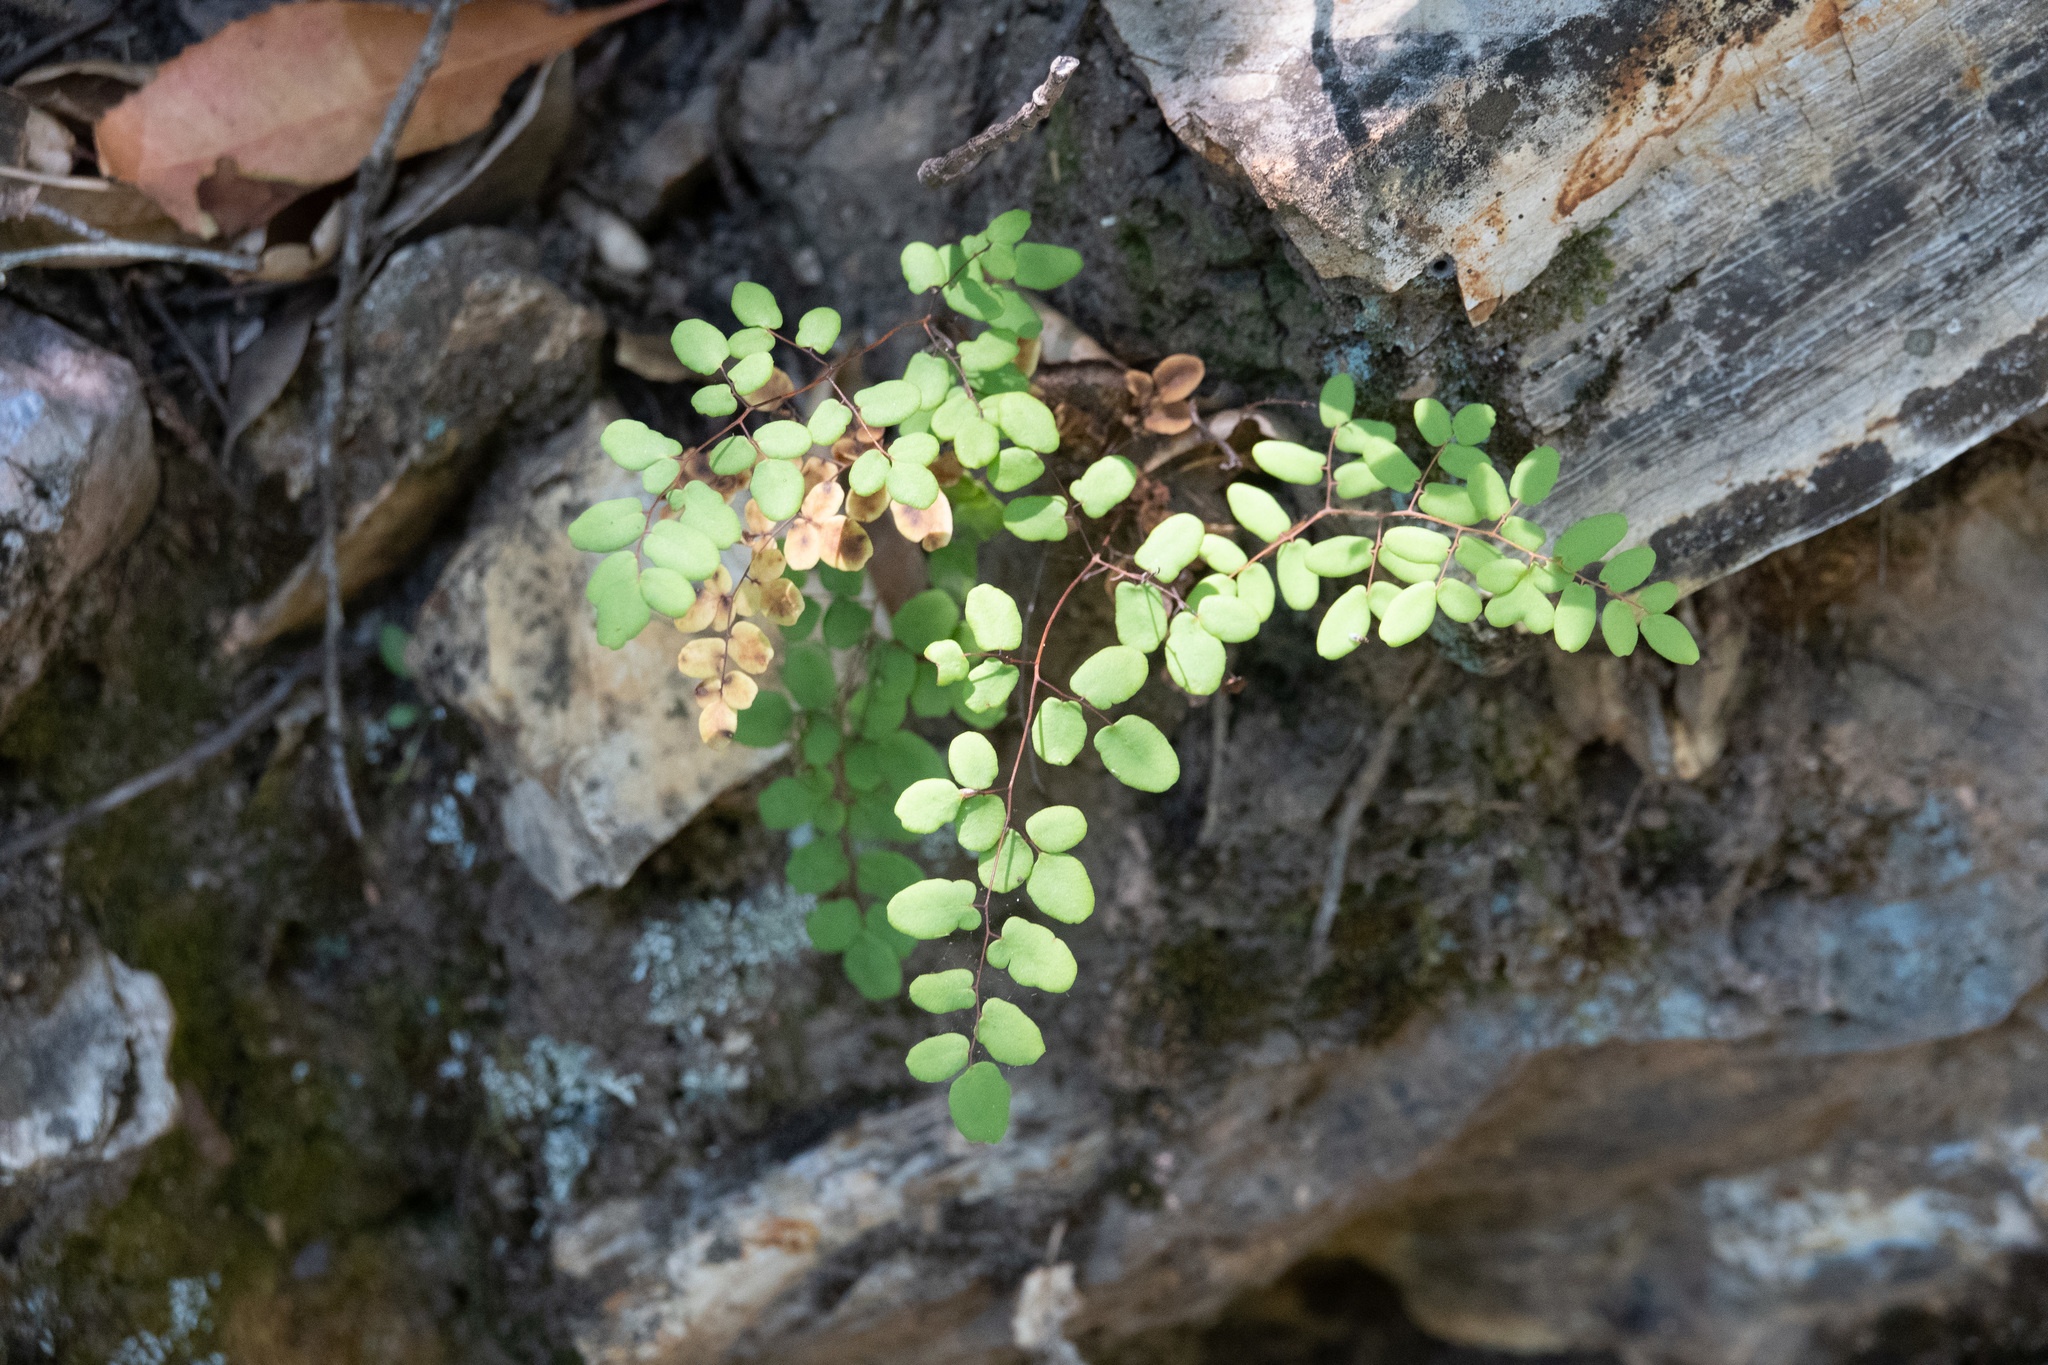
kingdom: Plantae
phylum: Tracheophyta
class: Polypodiopsida
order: Polypodiales
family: Pteridaceae
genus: Pellaea
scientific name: Pellaea andromedifolia
